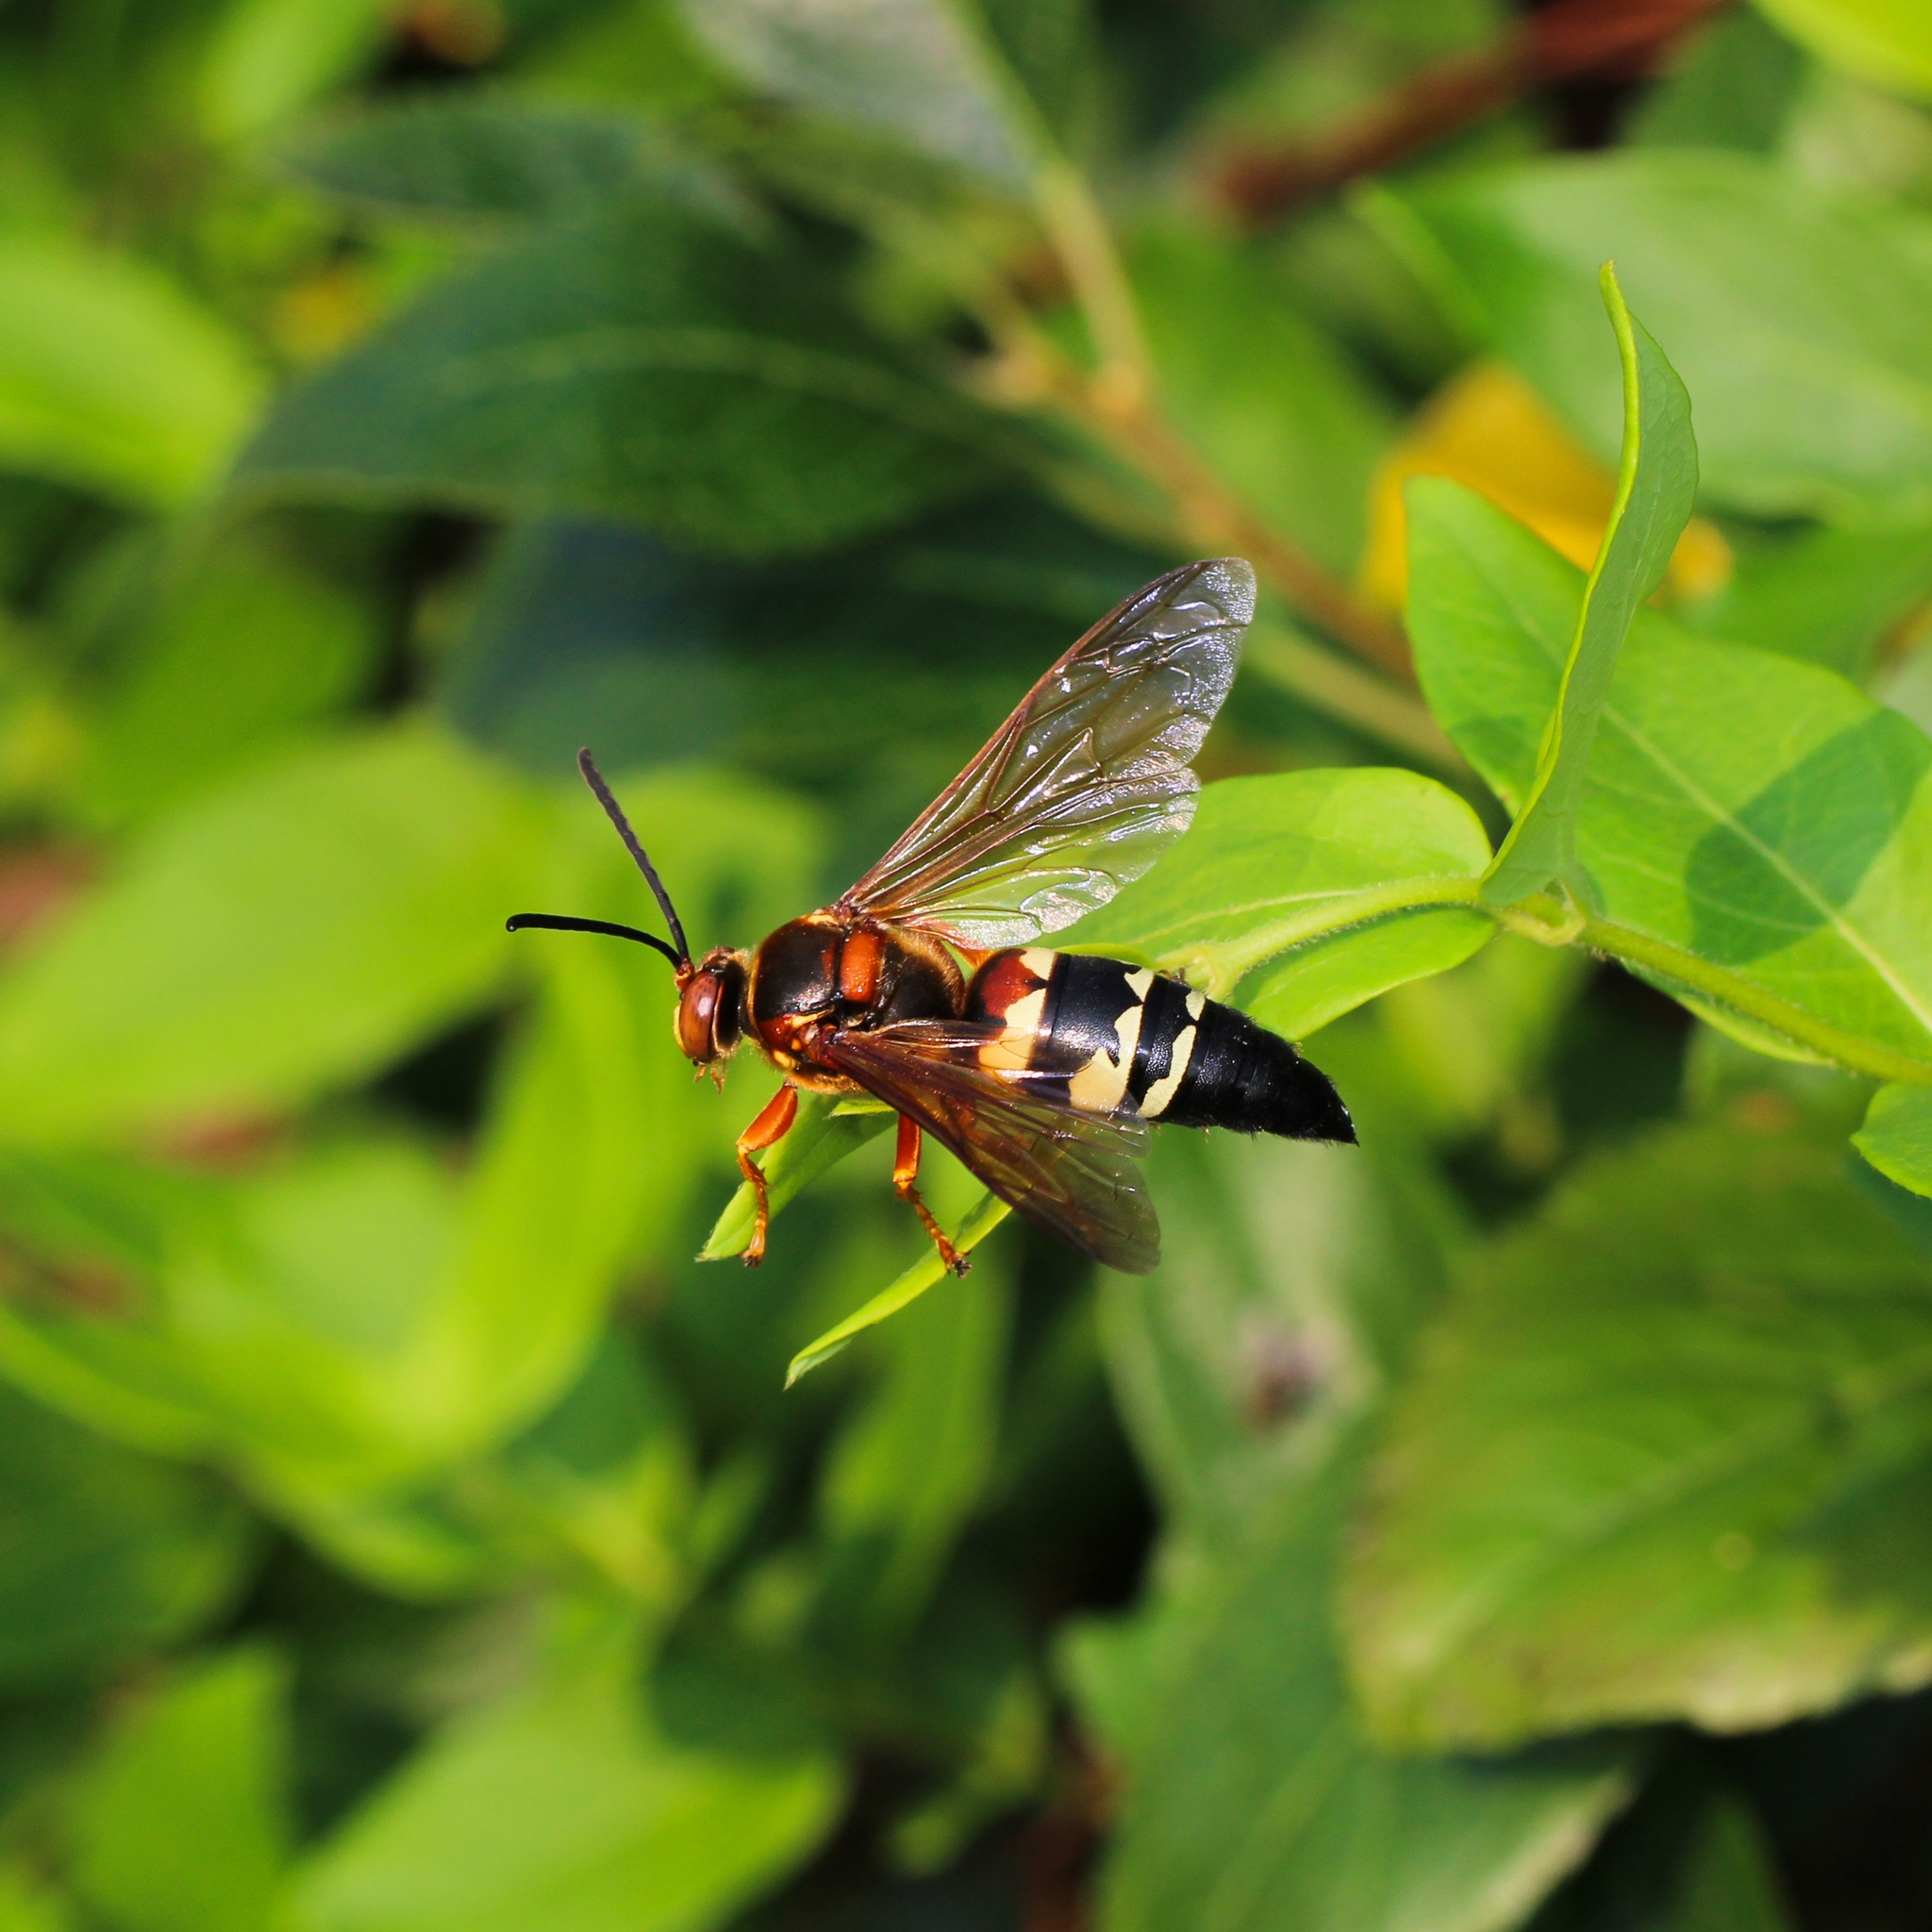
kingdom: Animalia
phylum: Arthropoda
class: Insecta
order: Hymenoptera
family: Crabronidae
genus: Sphecius
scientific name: Sphecius speciosus
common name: Cicada killer
